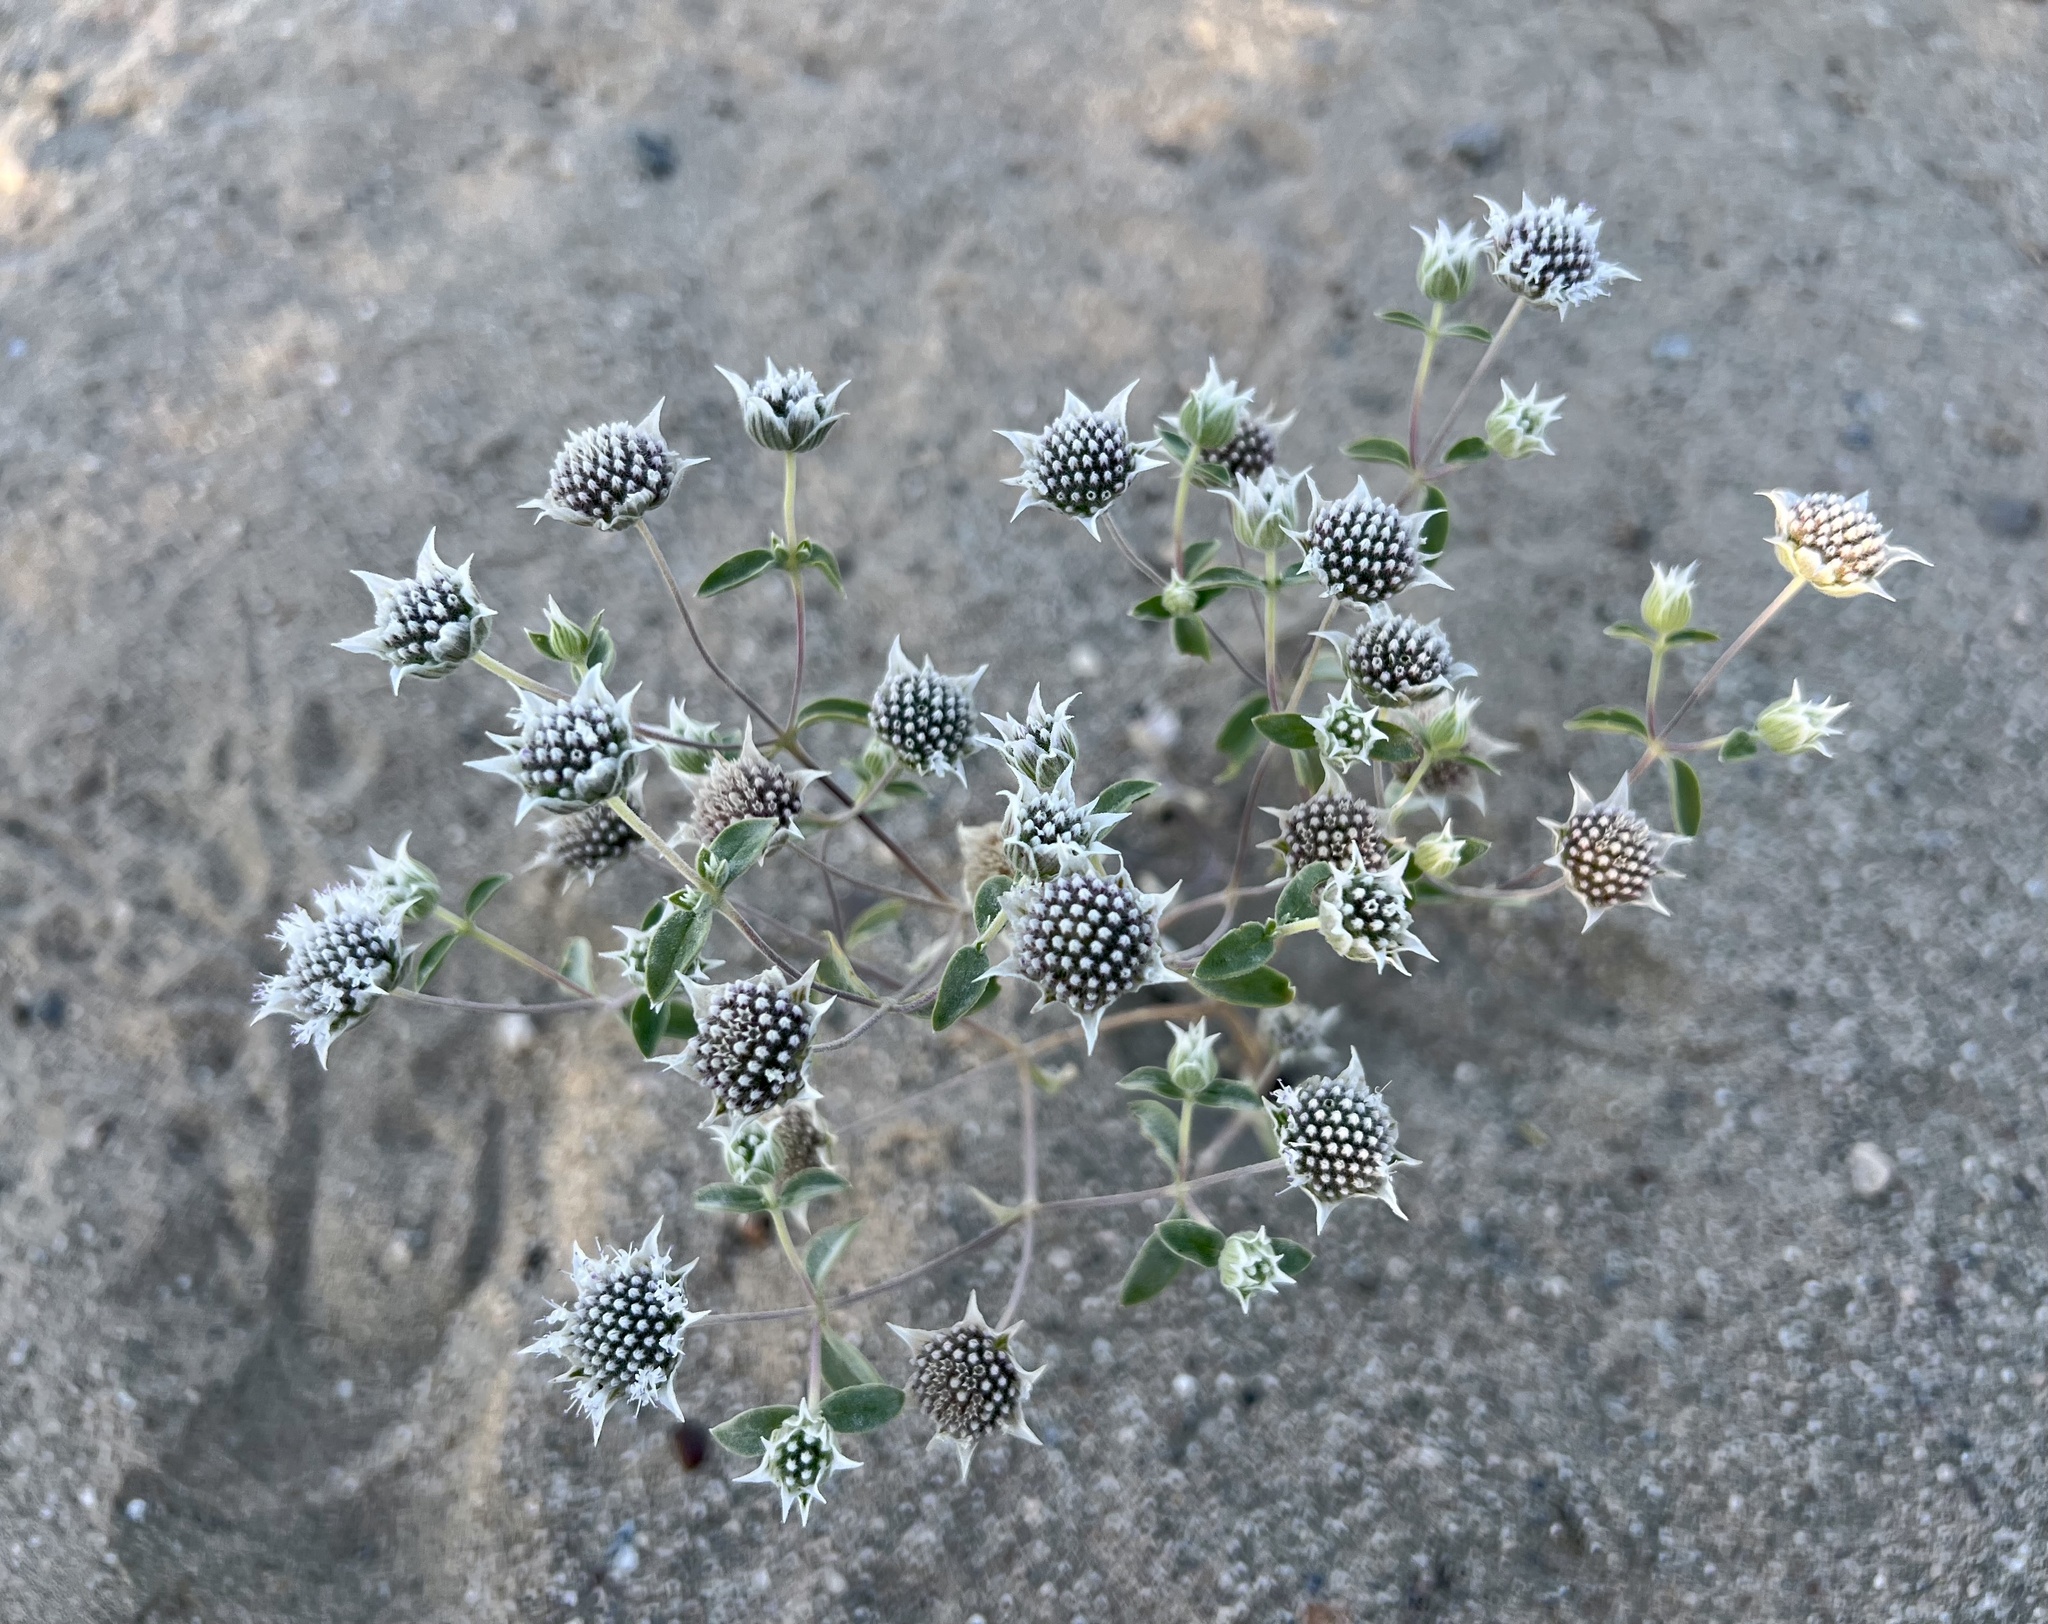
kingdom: Plantae
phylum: Tracheophyta
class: Magnoliopsida
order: Lamiales
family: Lamiaceae
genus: Monardella
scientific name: Monardella exilis
